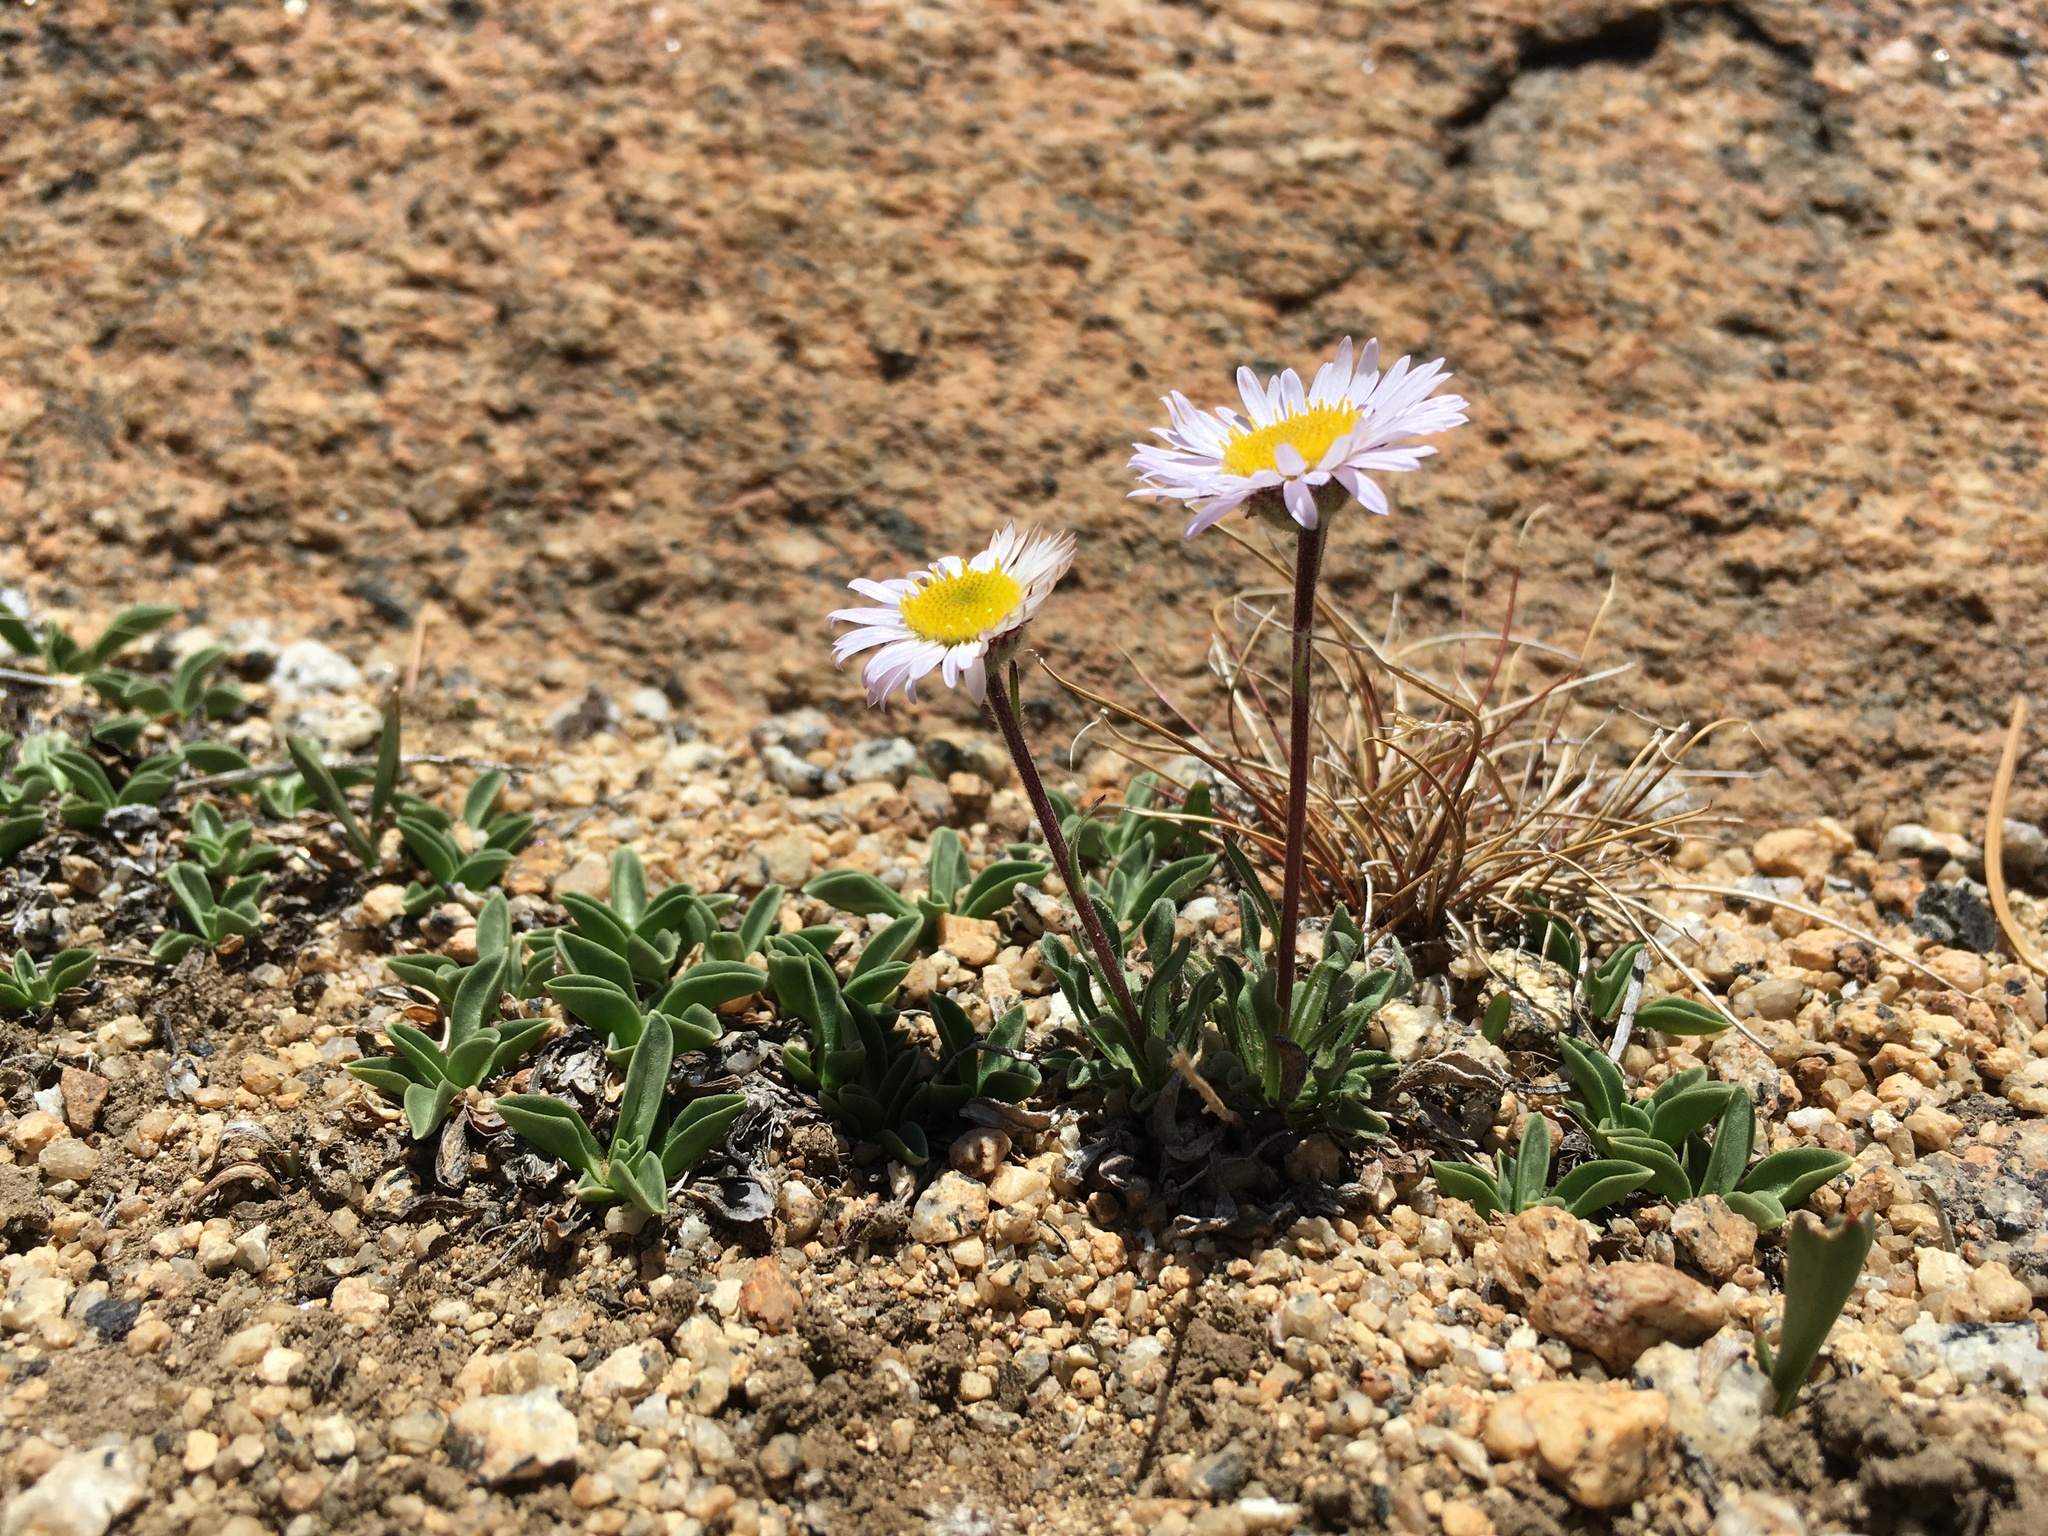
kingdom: Plantae
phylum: Tracheophyta
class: Magnoliopsida
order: Asterales
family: Asteraceae
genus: Erigeron
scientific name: Erigeron algidus
